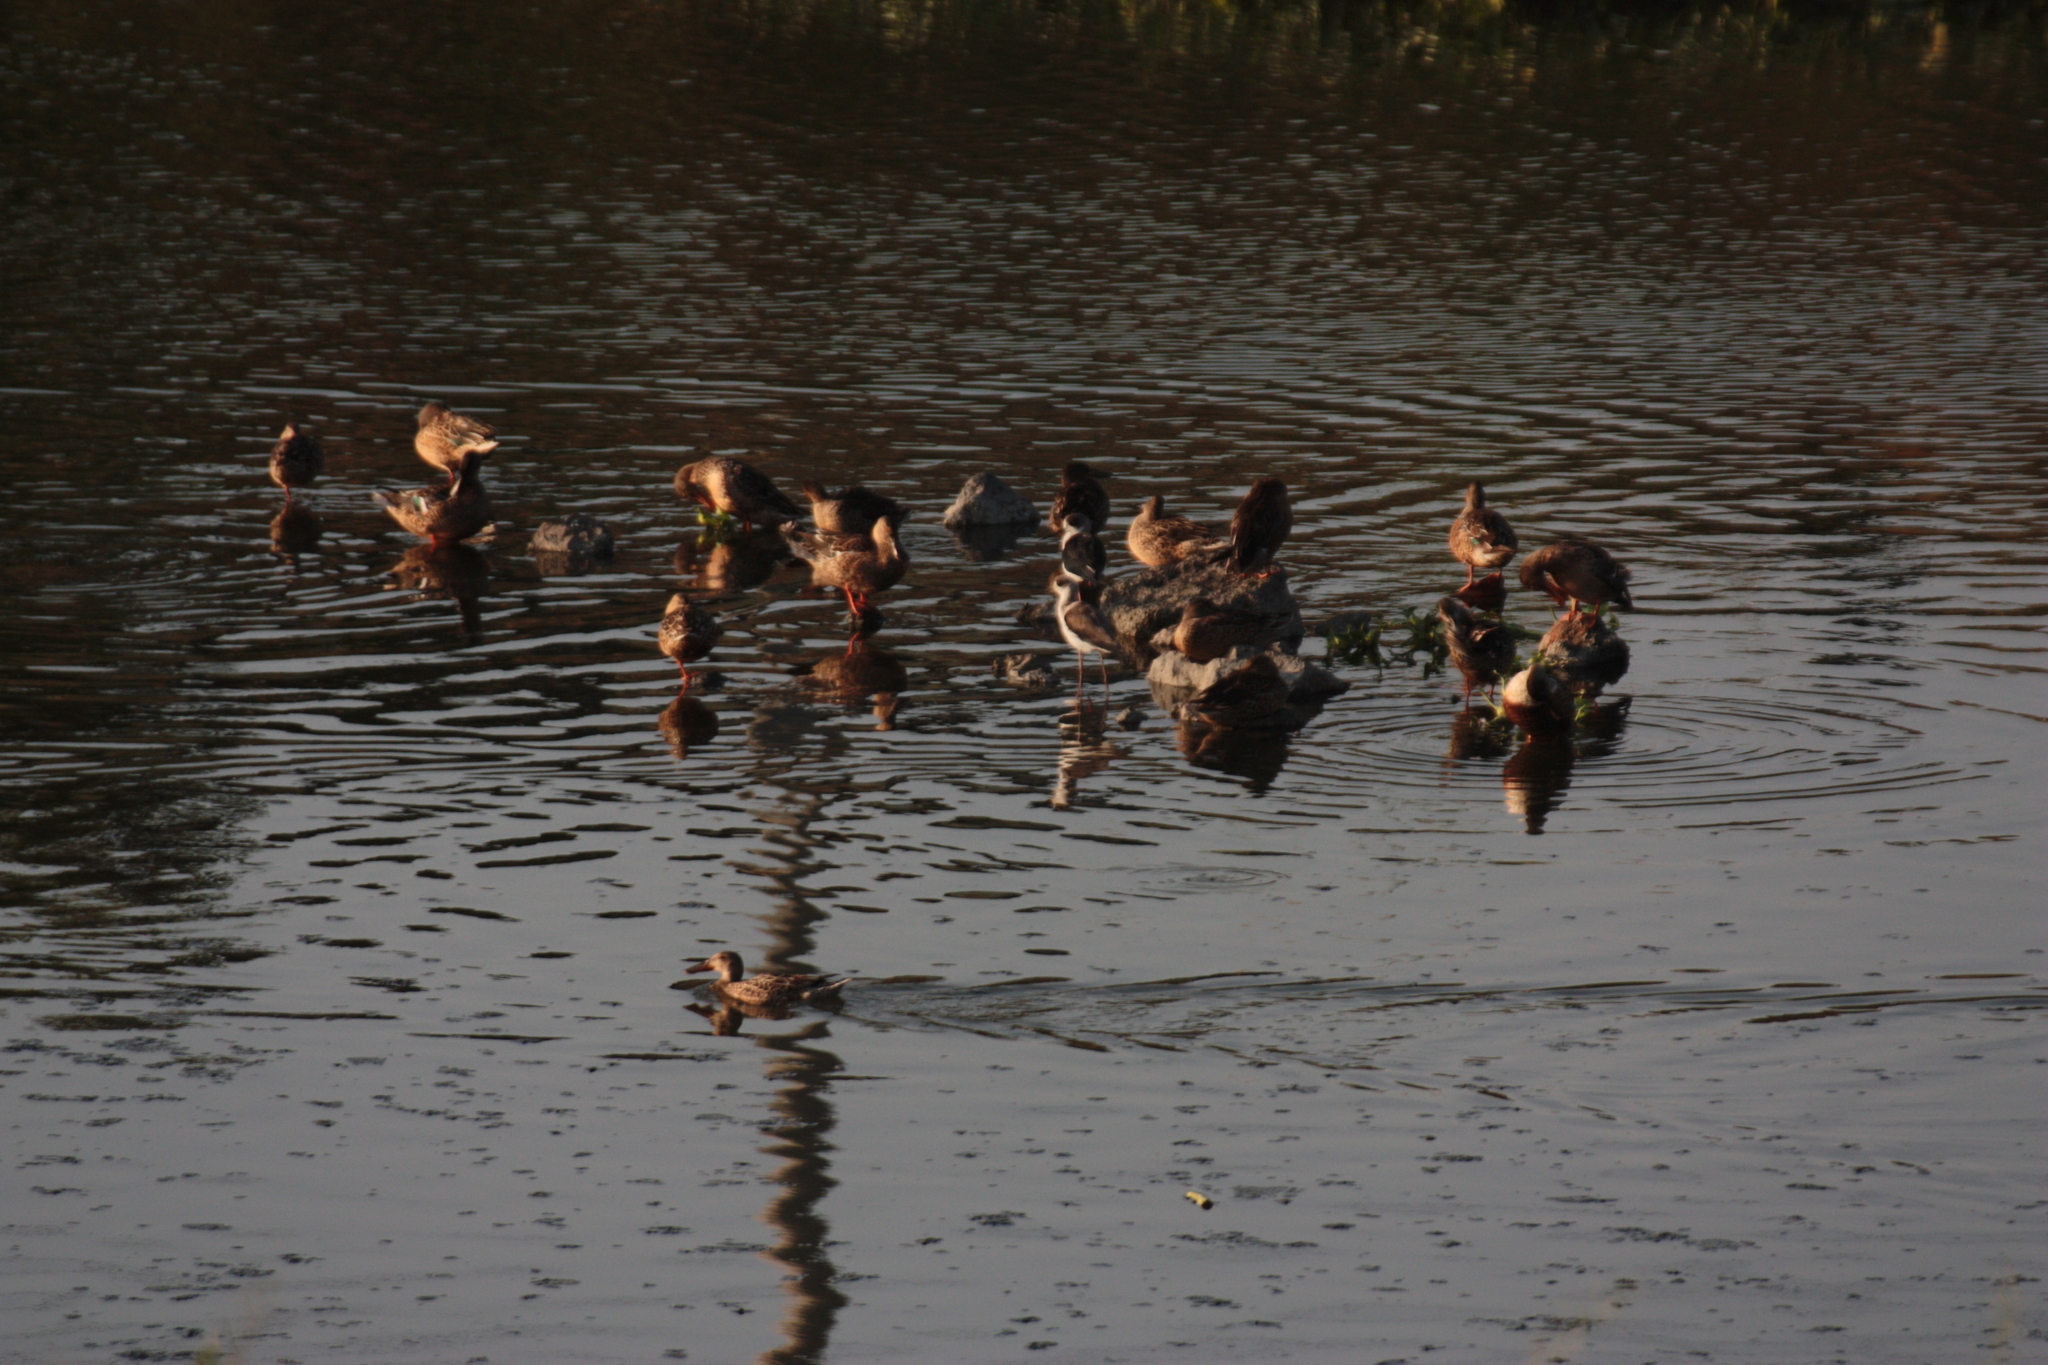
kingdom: Animalia
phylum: Chordata
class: Aves
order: Charadriiformes
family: Recurvirostridae
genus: Himantopus
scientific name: Himantopus himantopus
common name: Black-winged stilt
